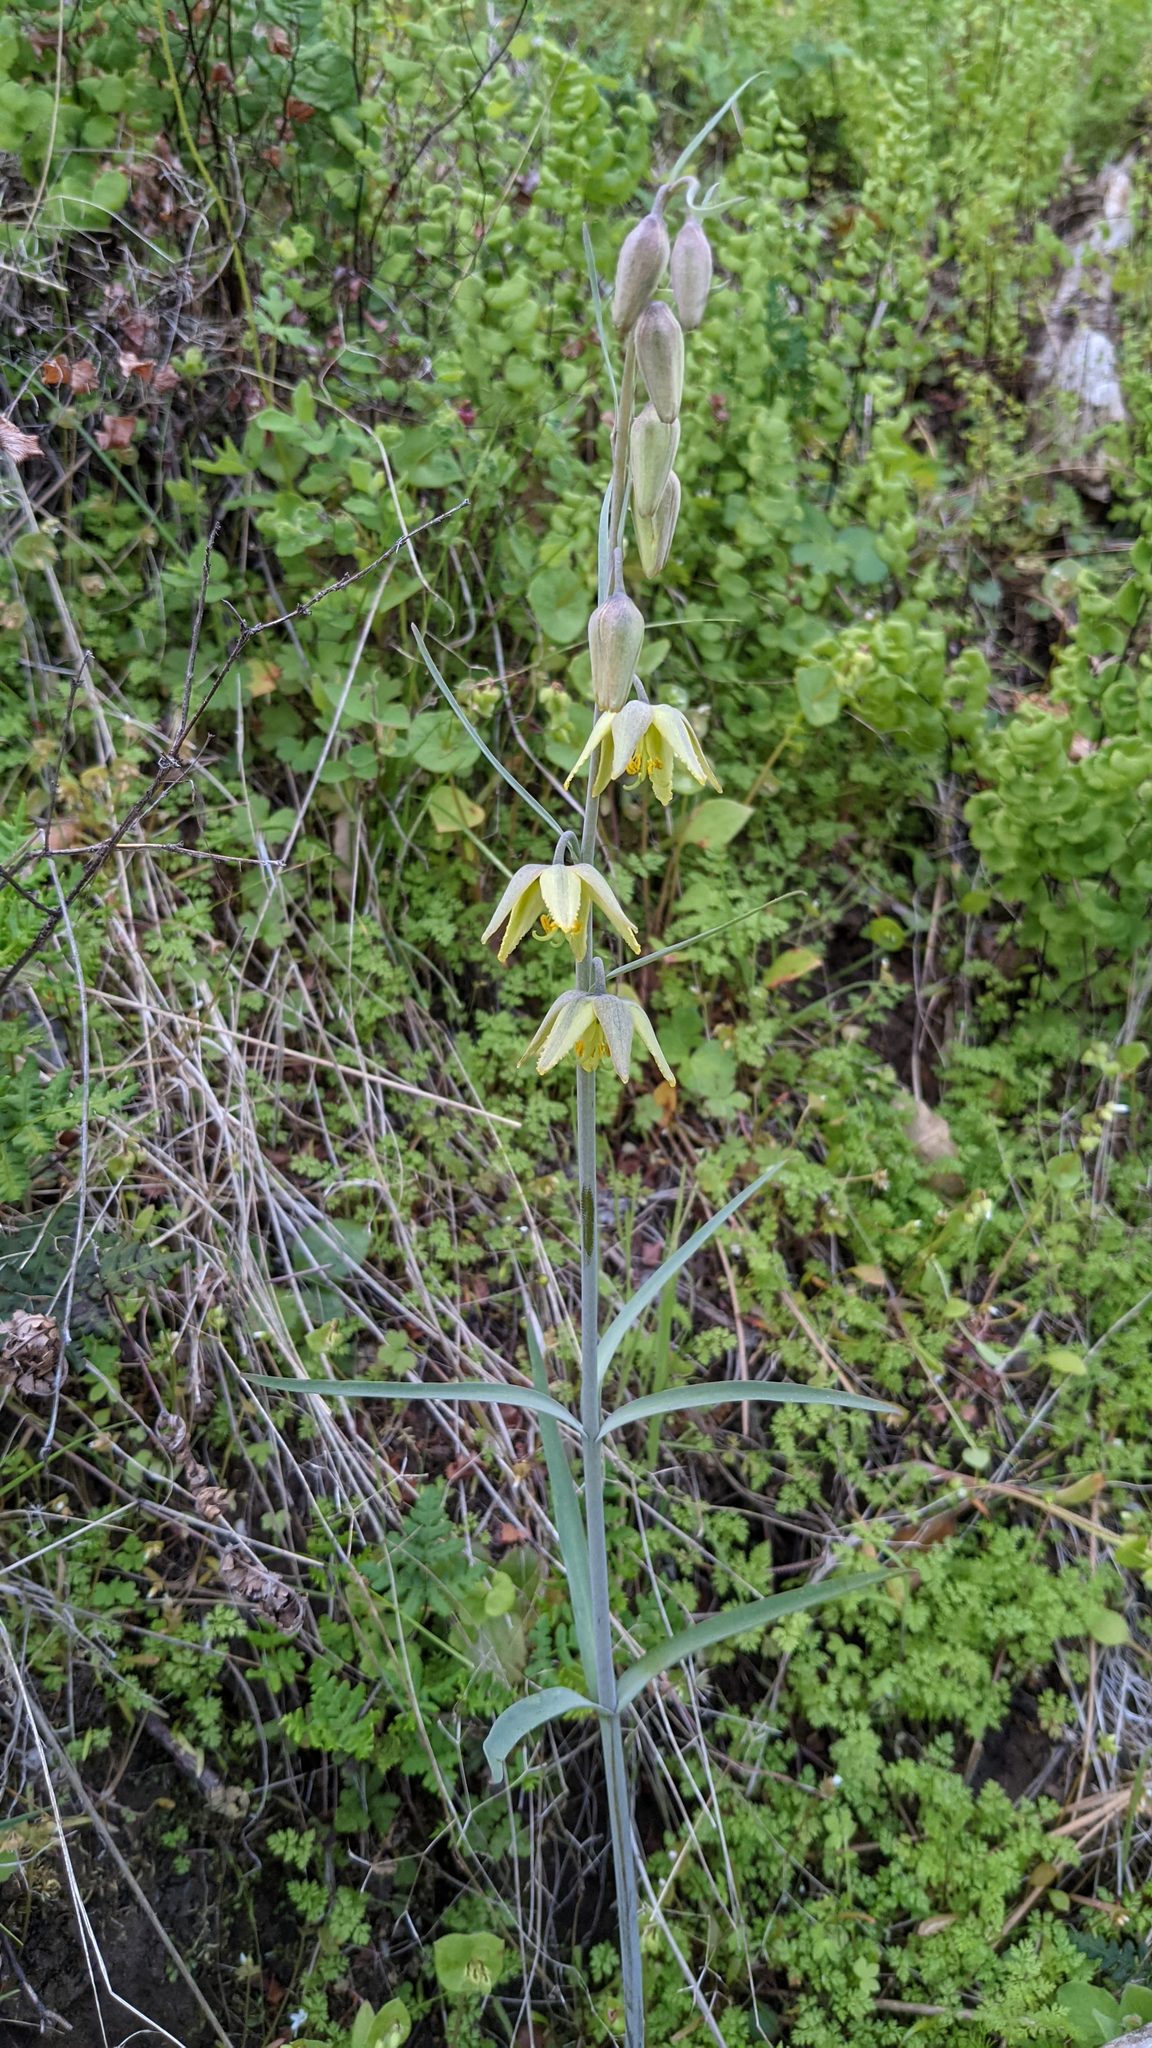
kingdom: Plantae
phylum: Tracheophyta
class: Liliopsida
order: Liliales
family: Liliaceae
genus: Fritillaria
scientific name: Fritillaria viridea
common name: San benito fritillary
